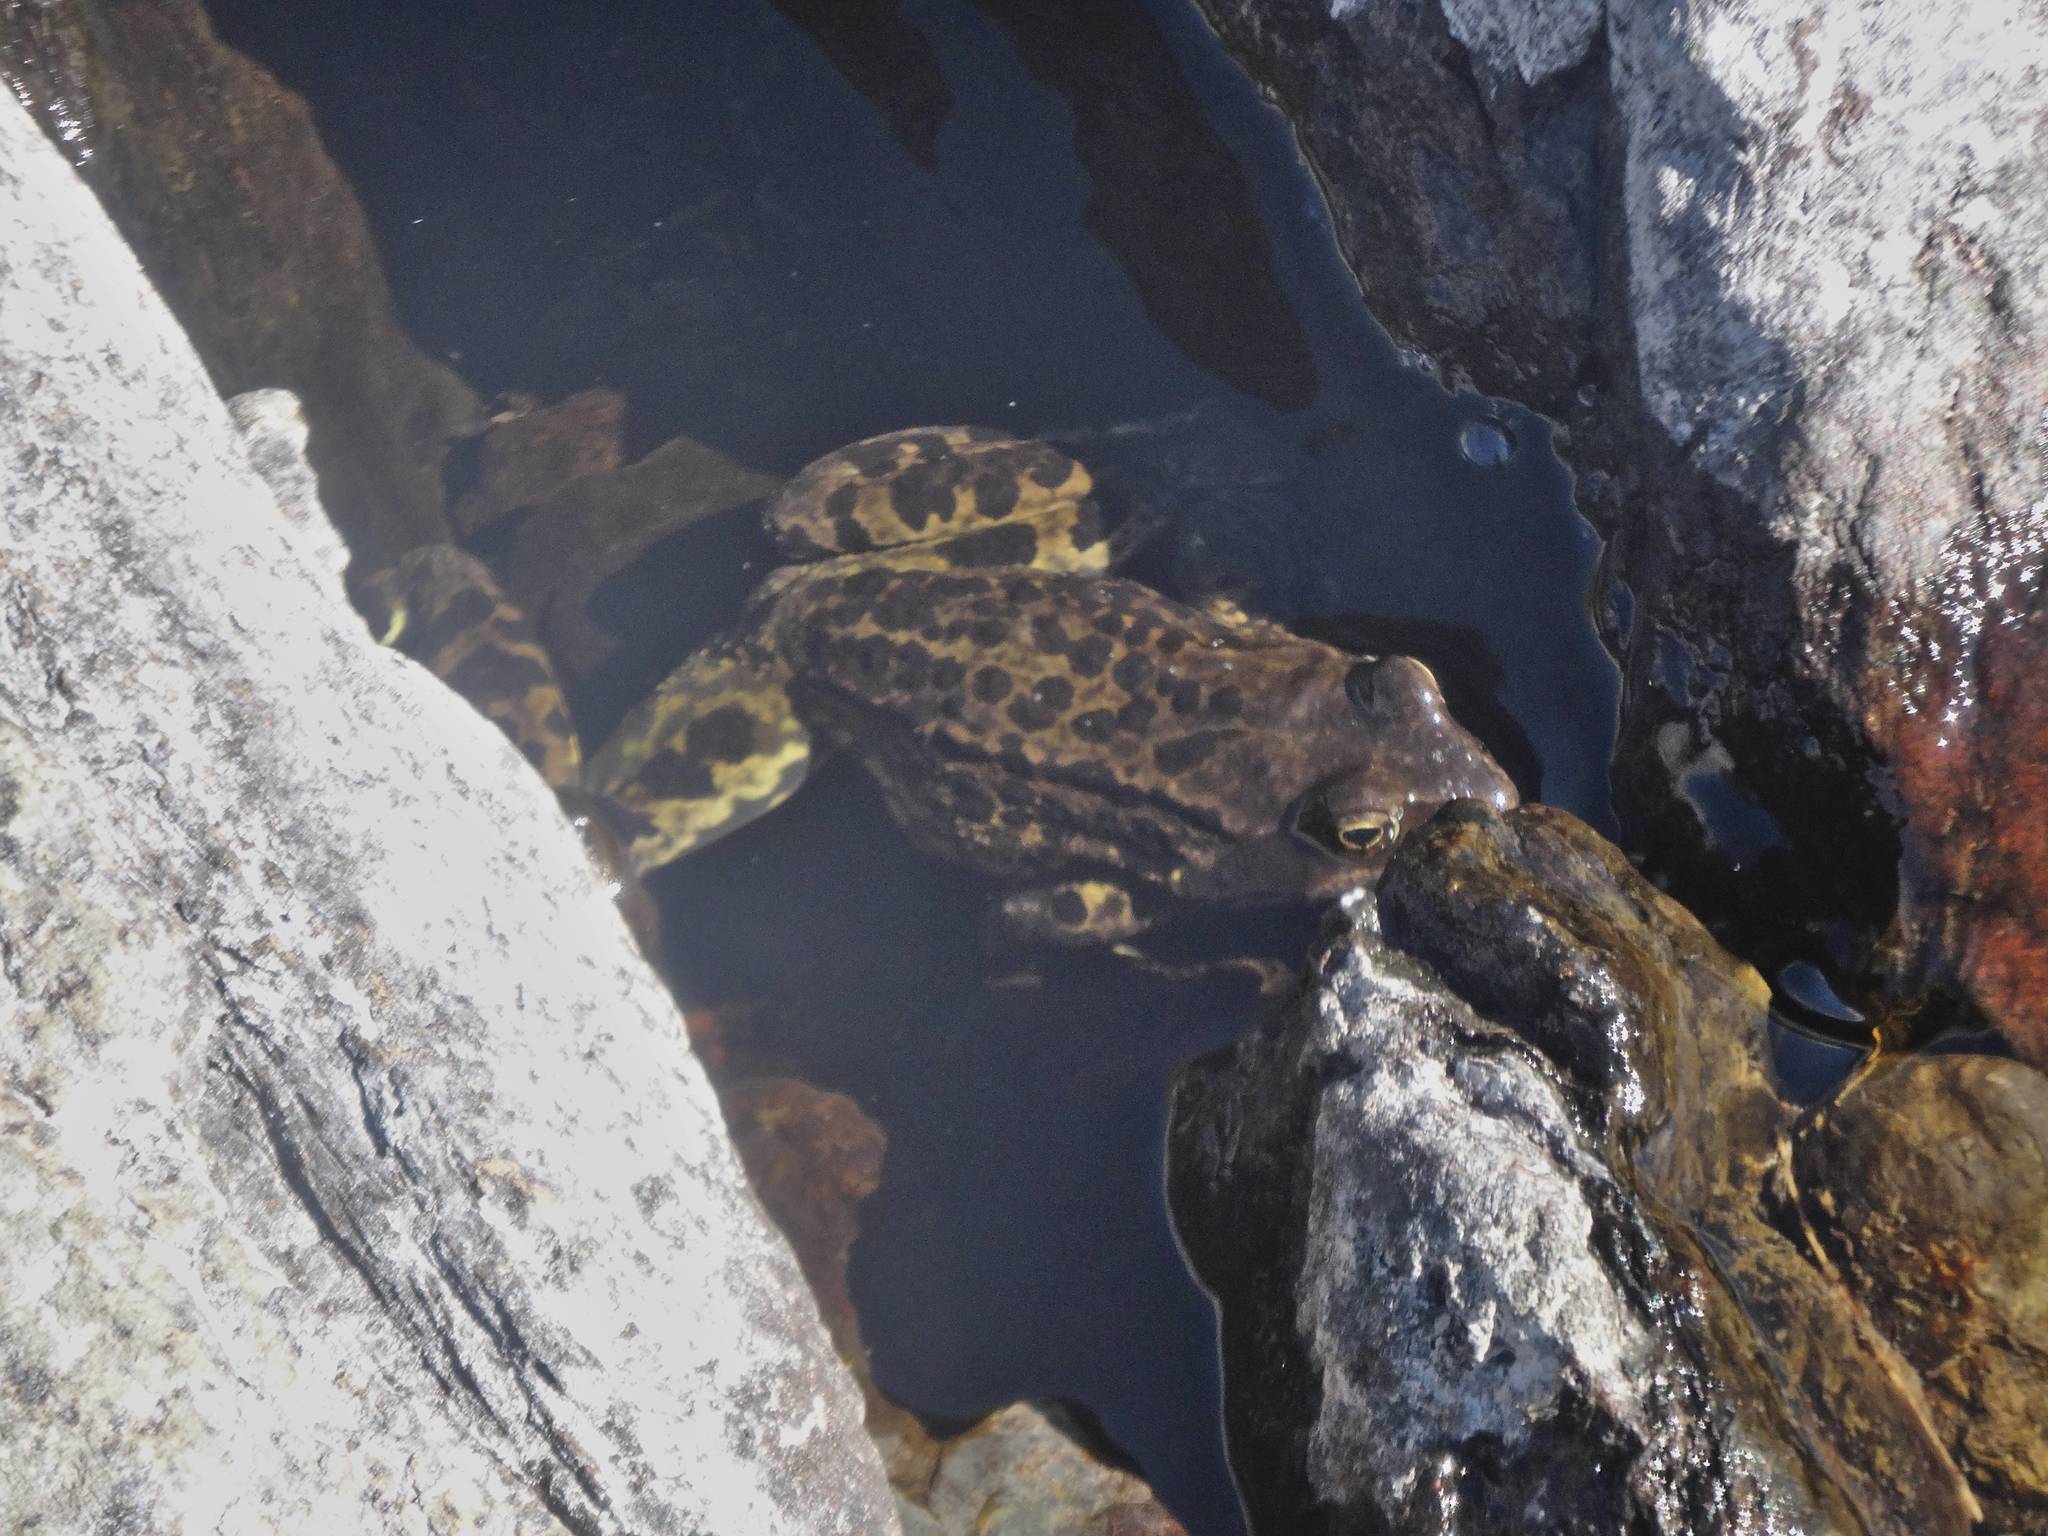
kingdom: Animalia
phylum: Chordata
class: Amphibia
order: Anura
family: Ranidae
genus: Rana
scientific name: Rana temporaria
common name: Common frog
